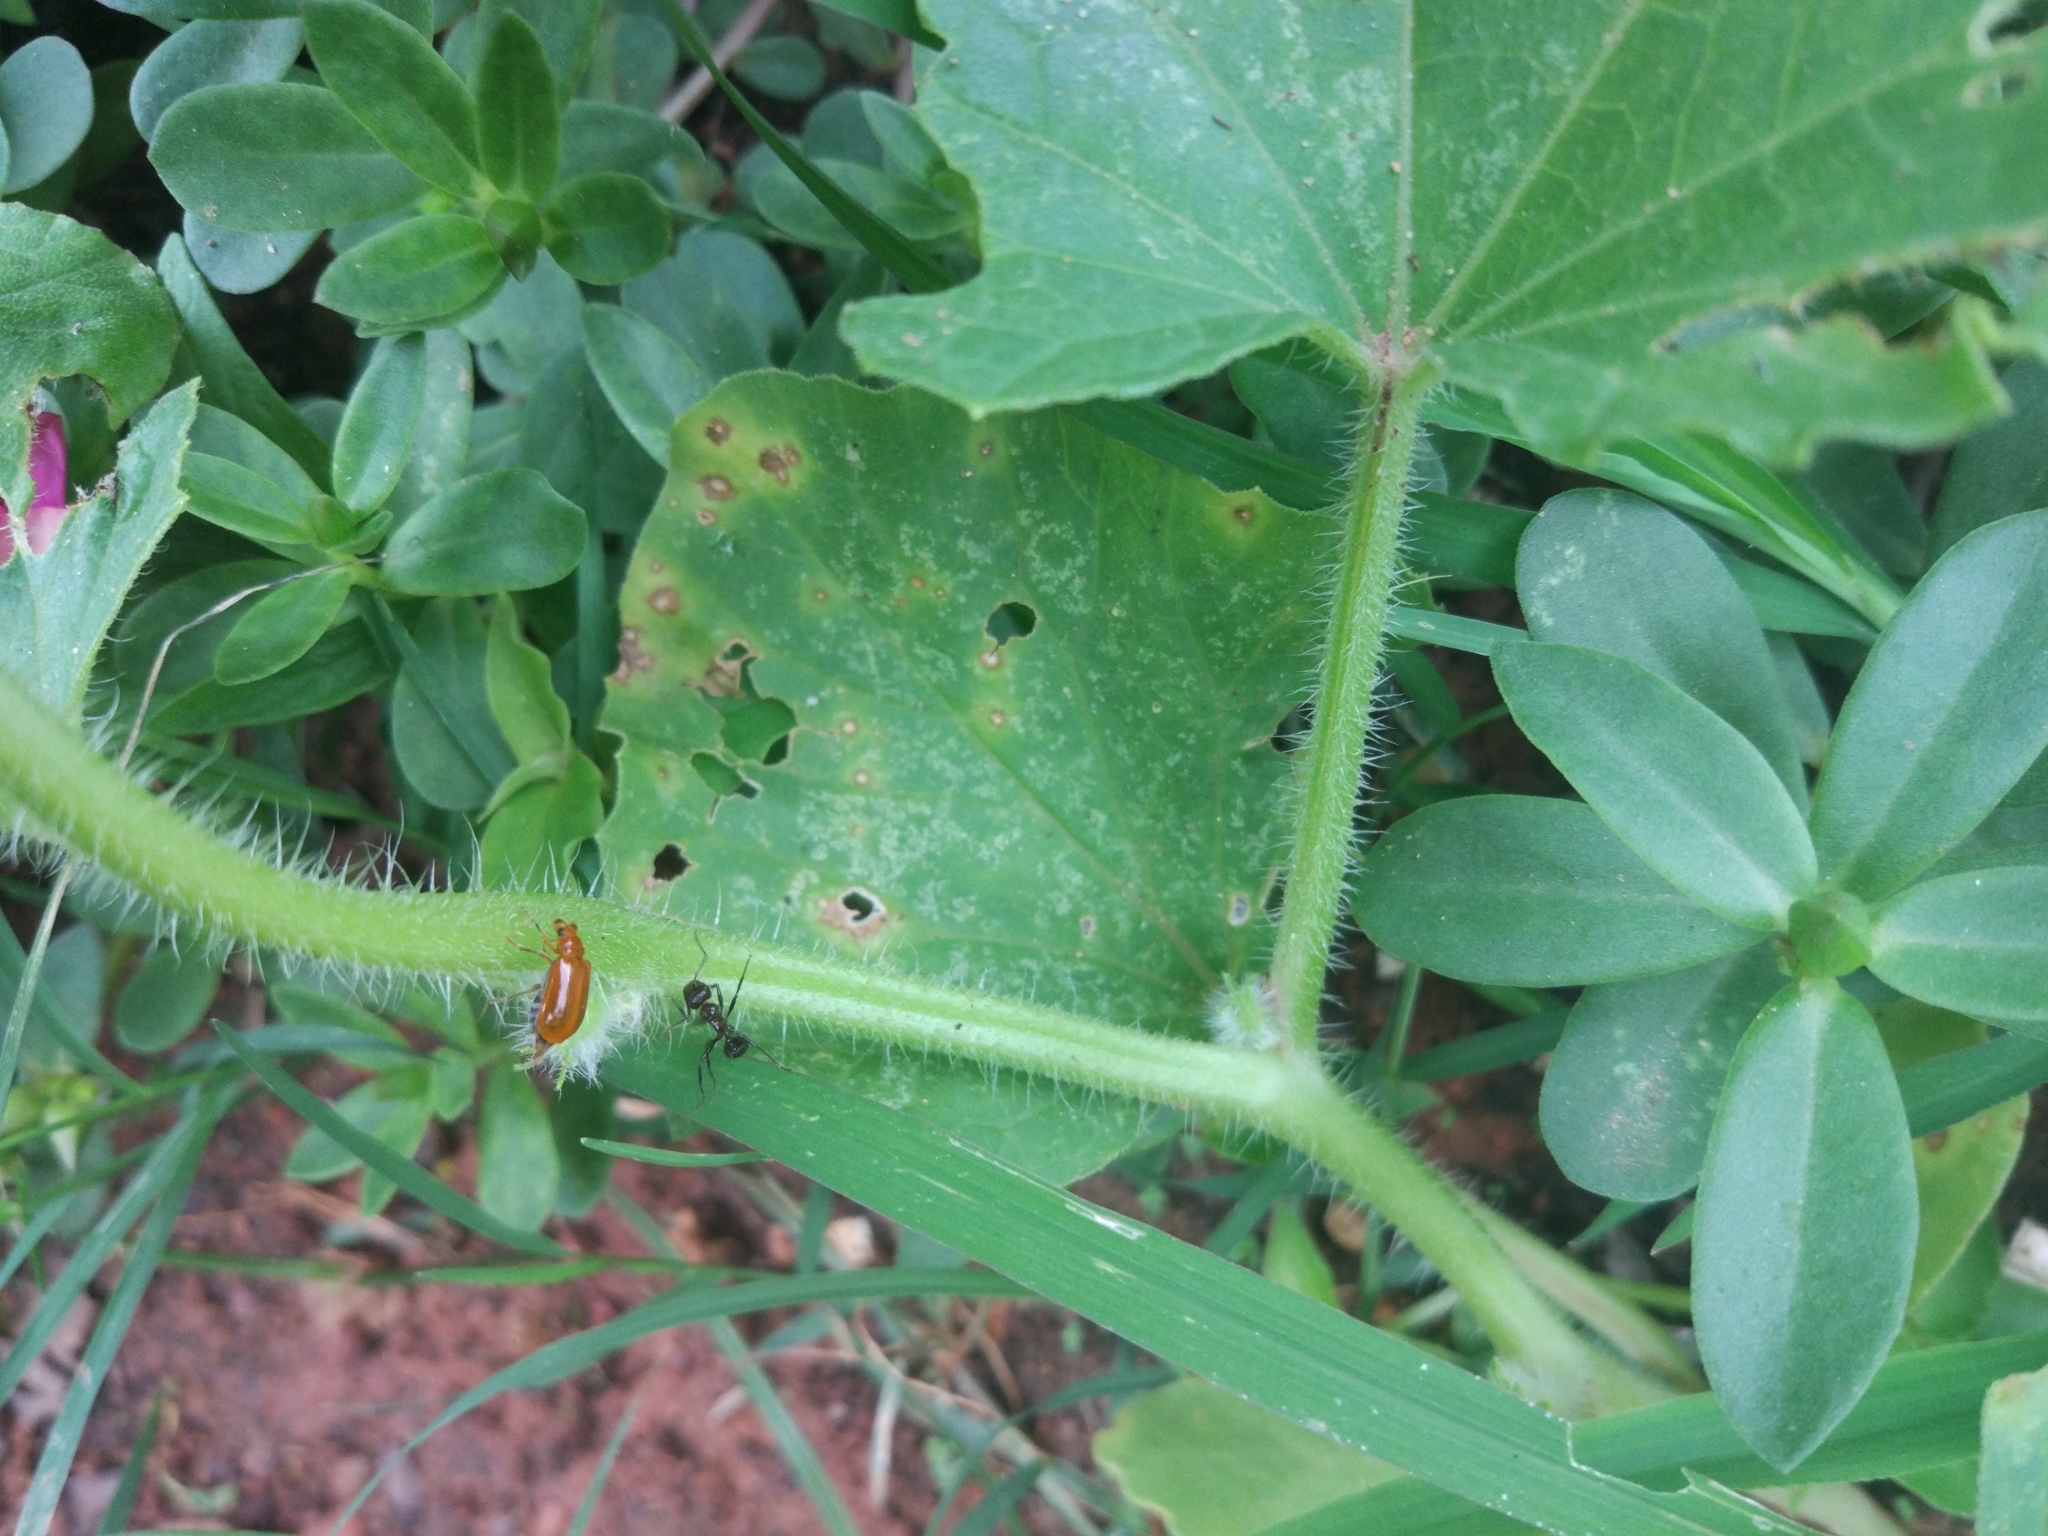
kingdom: Animalia
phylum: Arthropoda
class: Insecta
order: Coleoptera
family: Chrysomelidae
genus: Aulacophora
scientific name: Aulacophora indica
